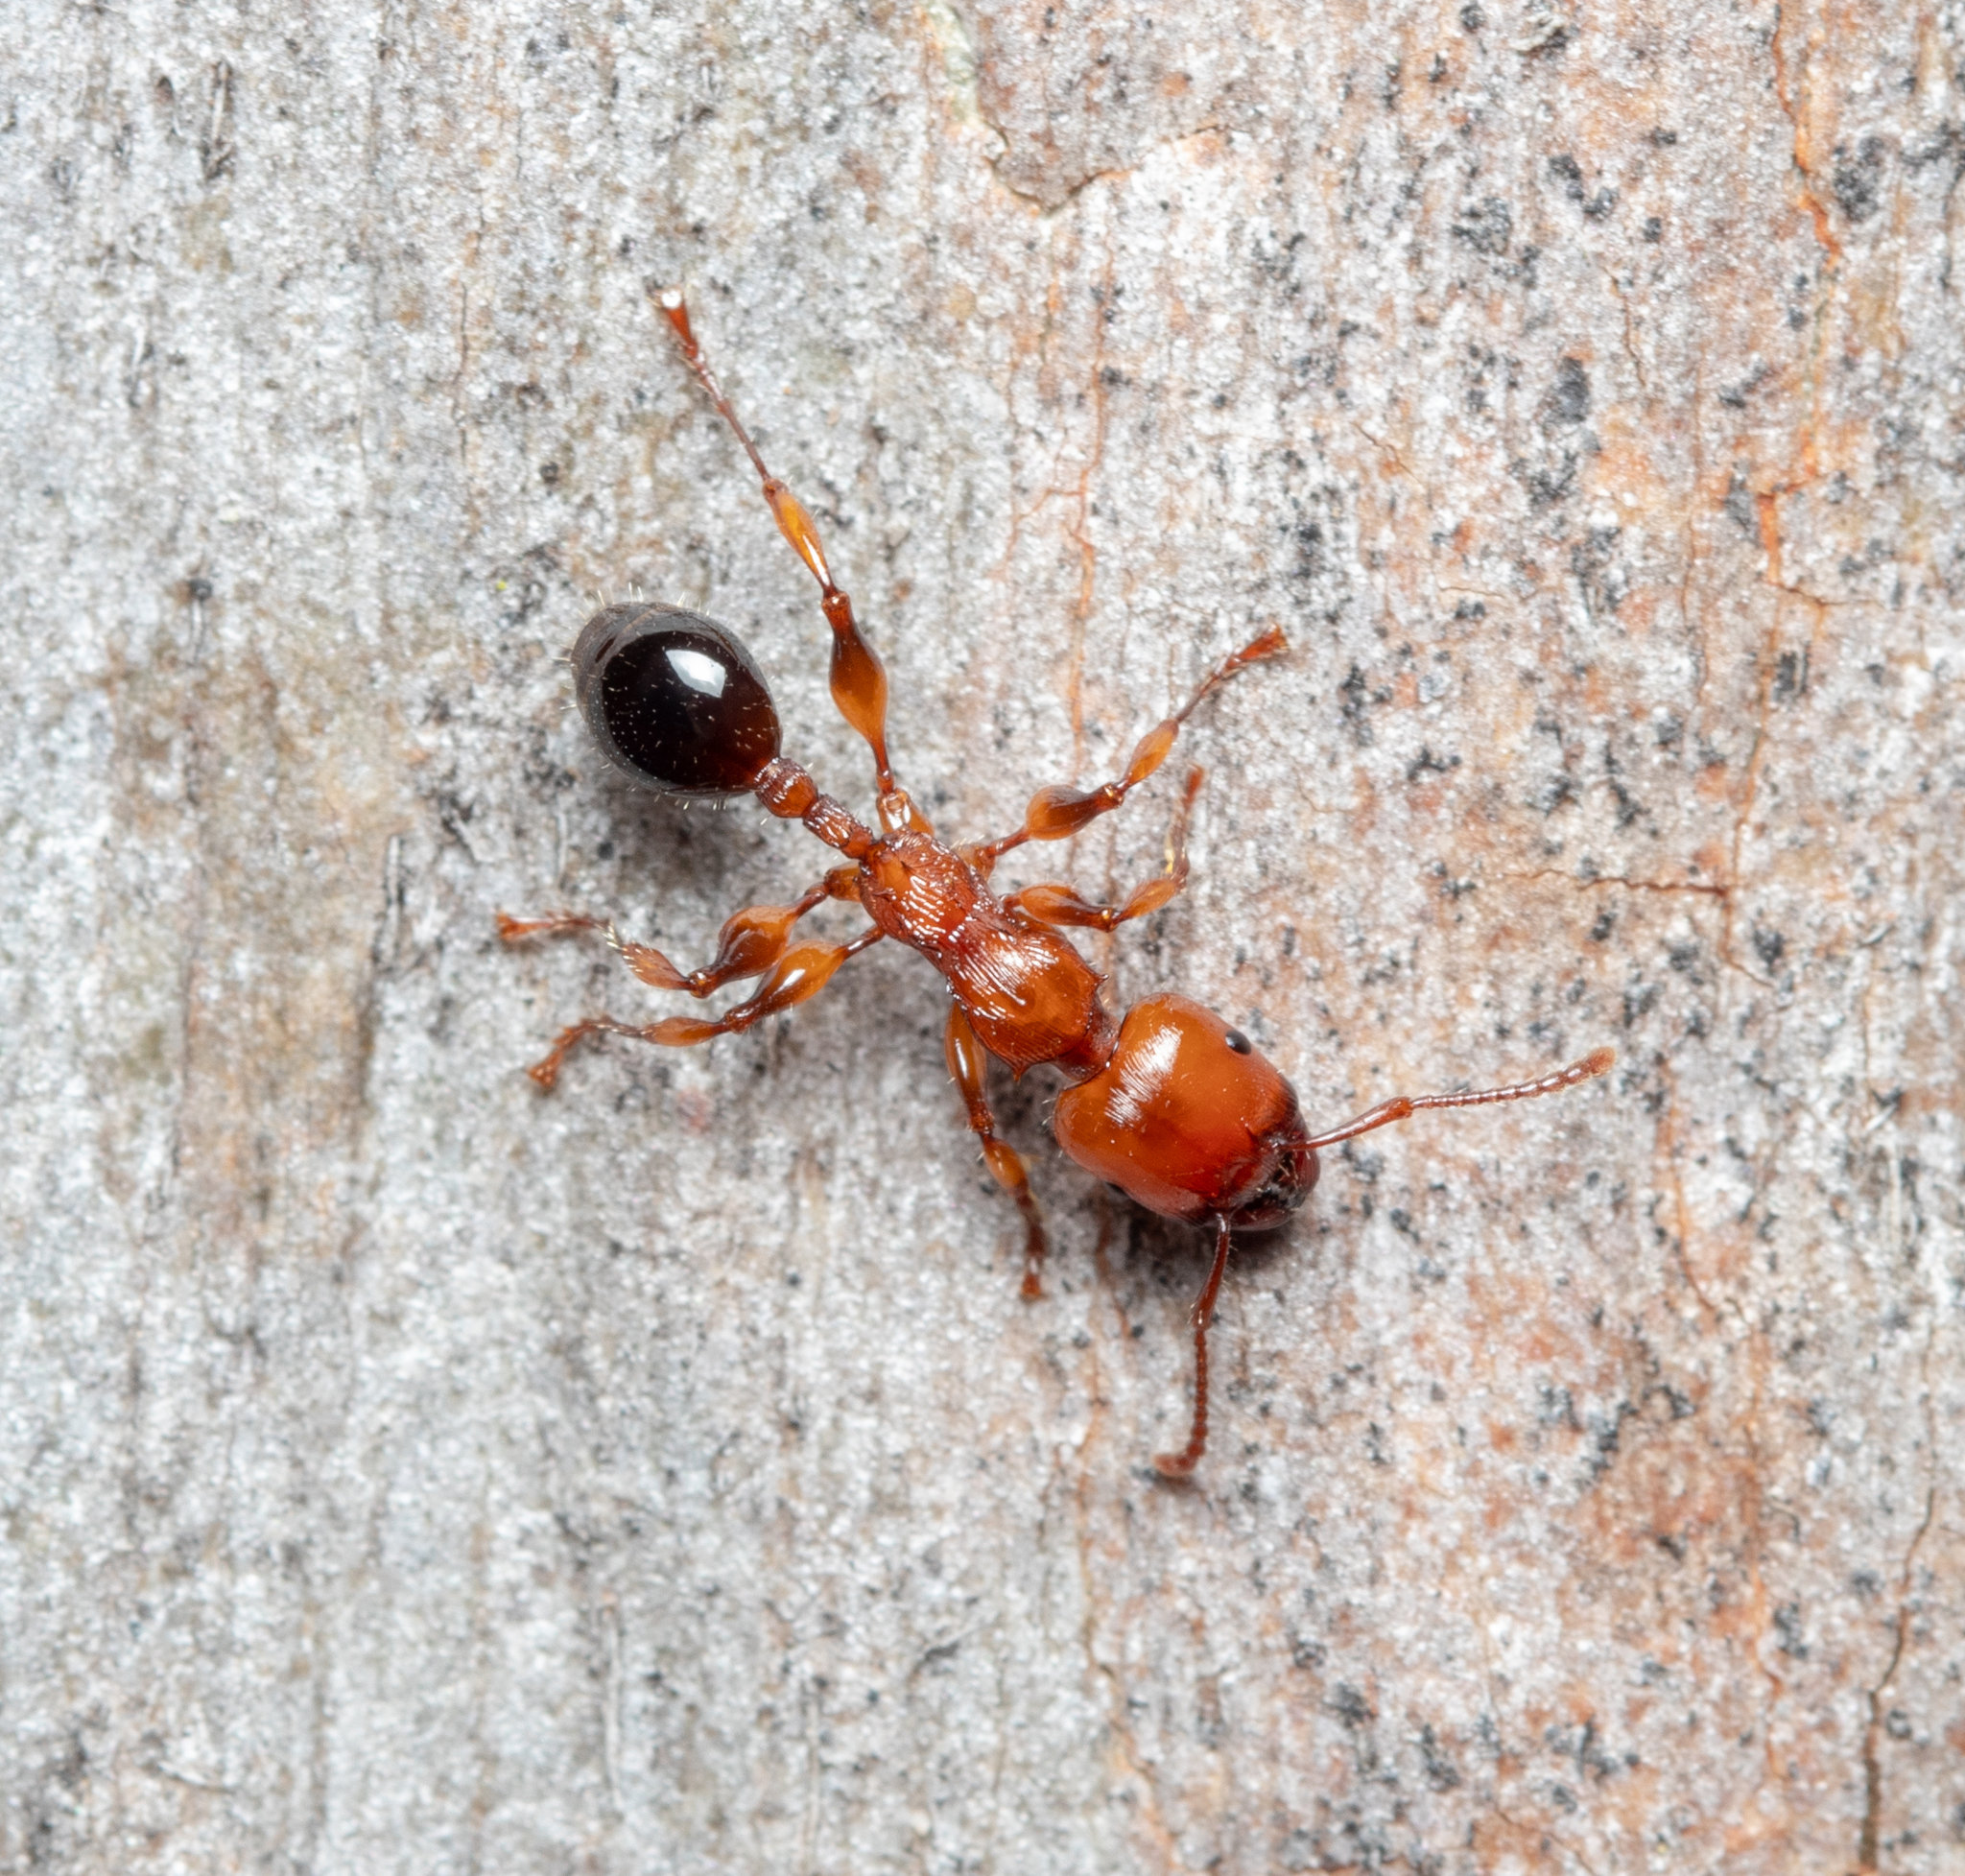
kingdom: Animalia
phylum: Arthropoda
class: Insecta
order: Hymenoptera
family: Formicidae
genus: Podomyrma
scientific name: Podomyrma gratiosa
